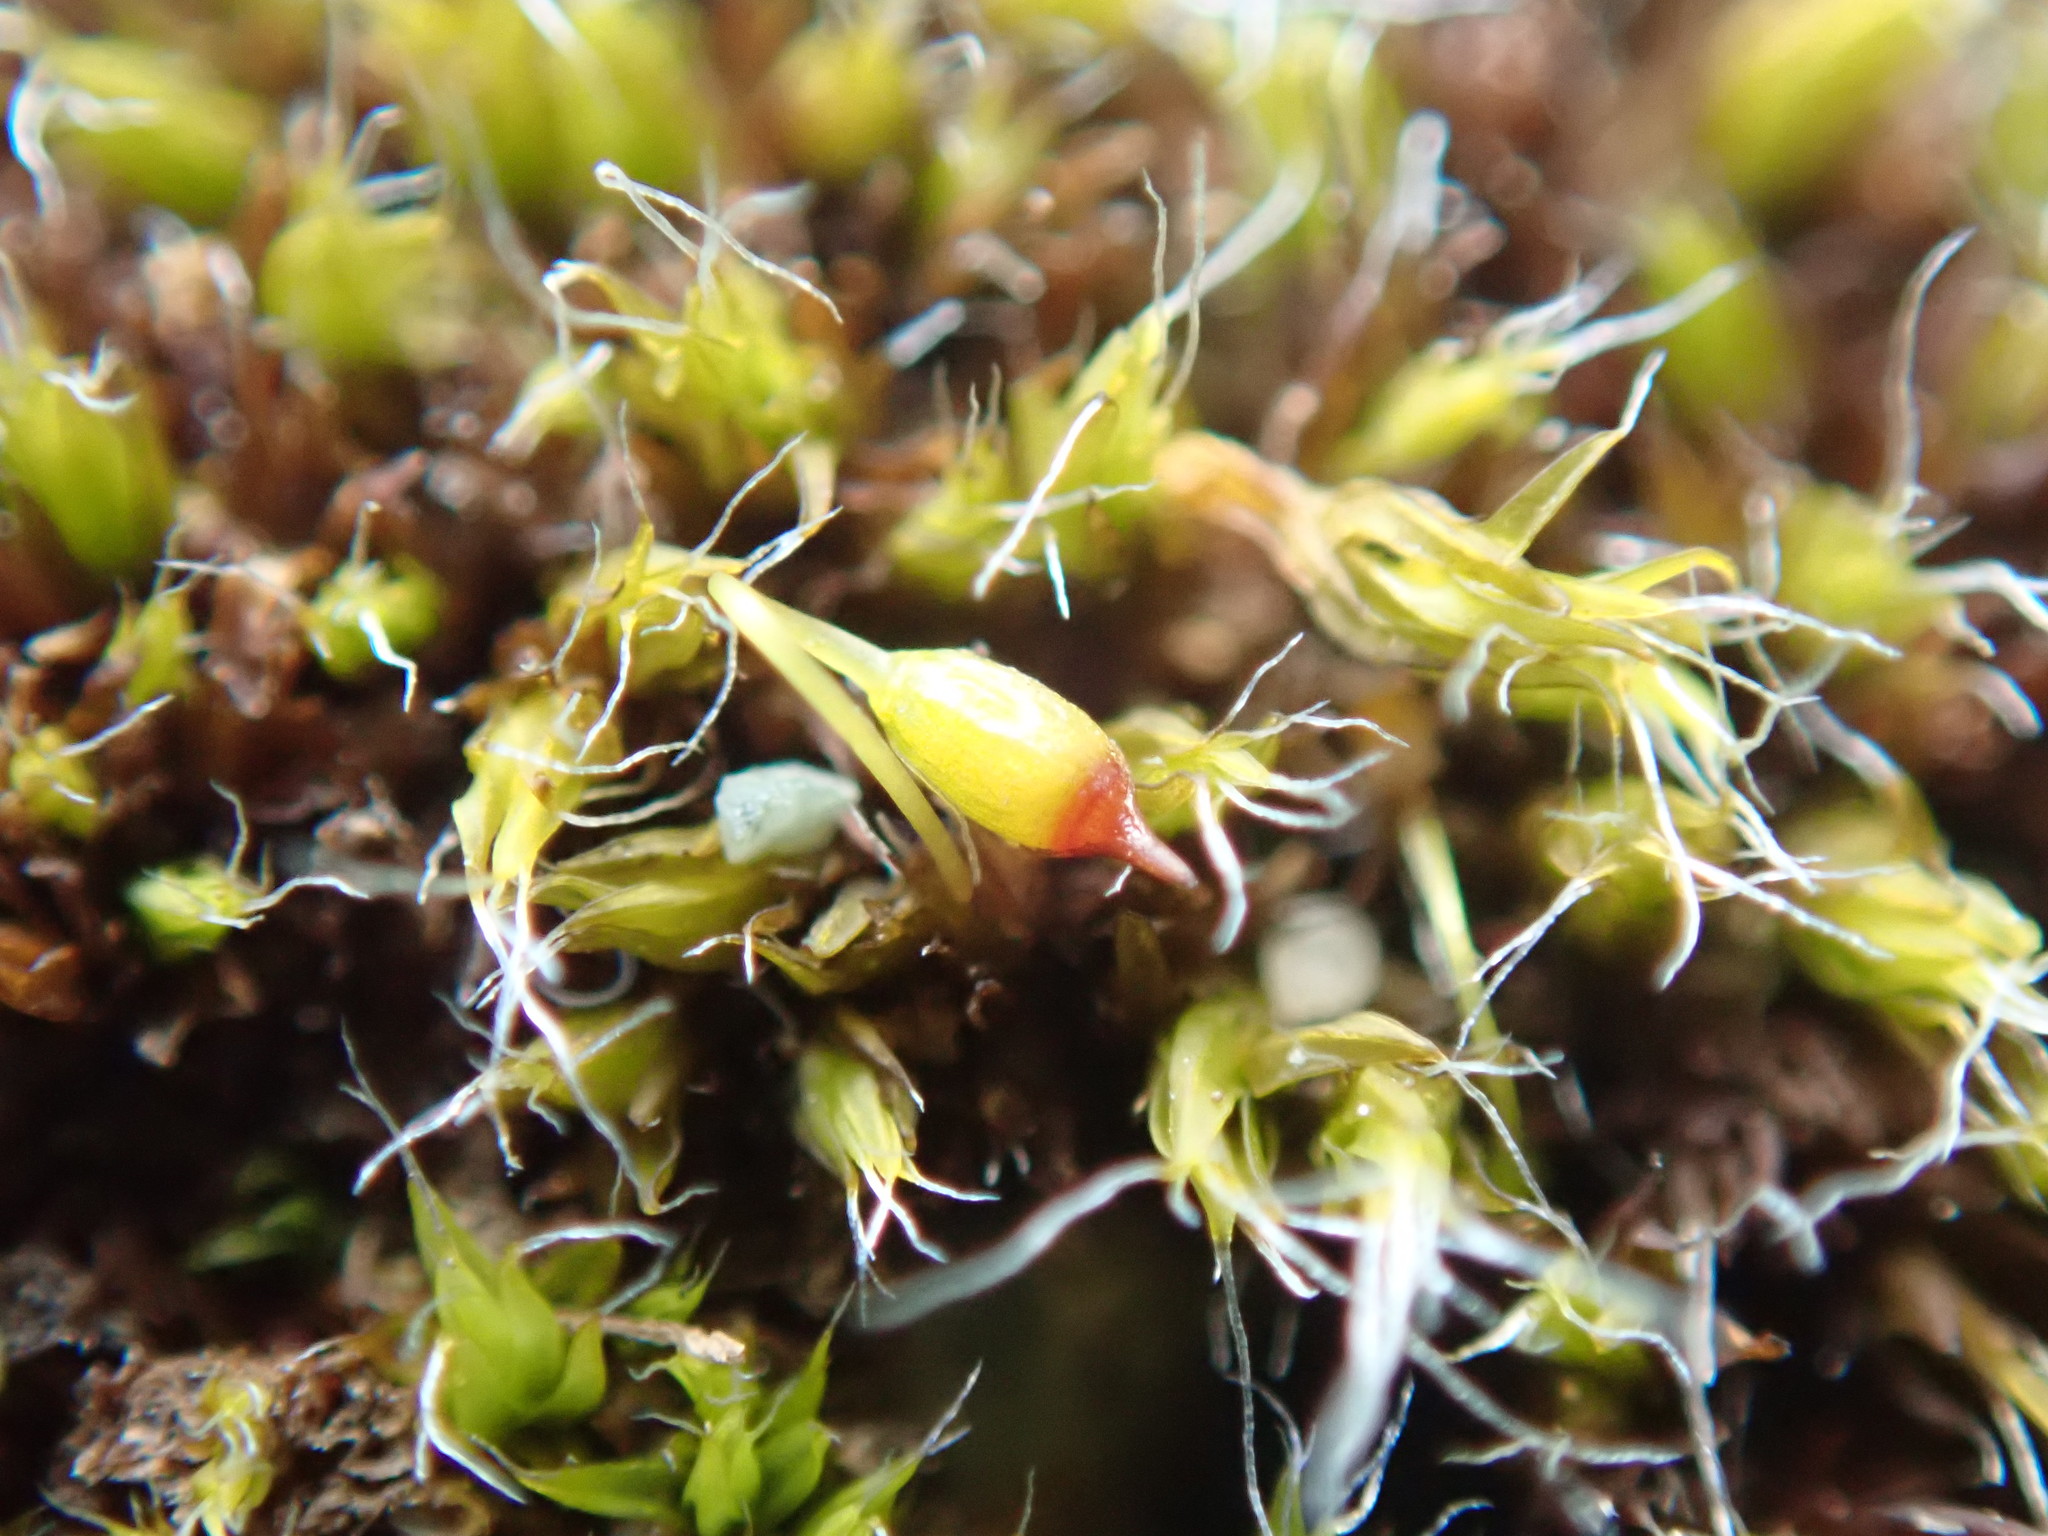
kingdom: Plantae
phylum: Bryophyta
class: Bryopsida
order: Grimmiales
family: Grimmiaceae
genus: Grimmia
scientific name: Grimmia pulvinata
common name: Grey-cushioned grimmia
